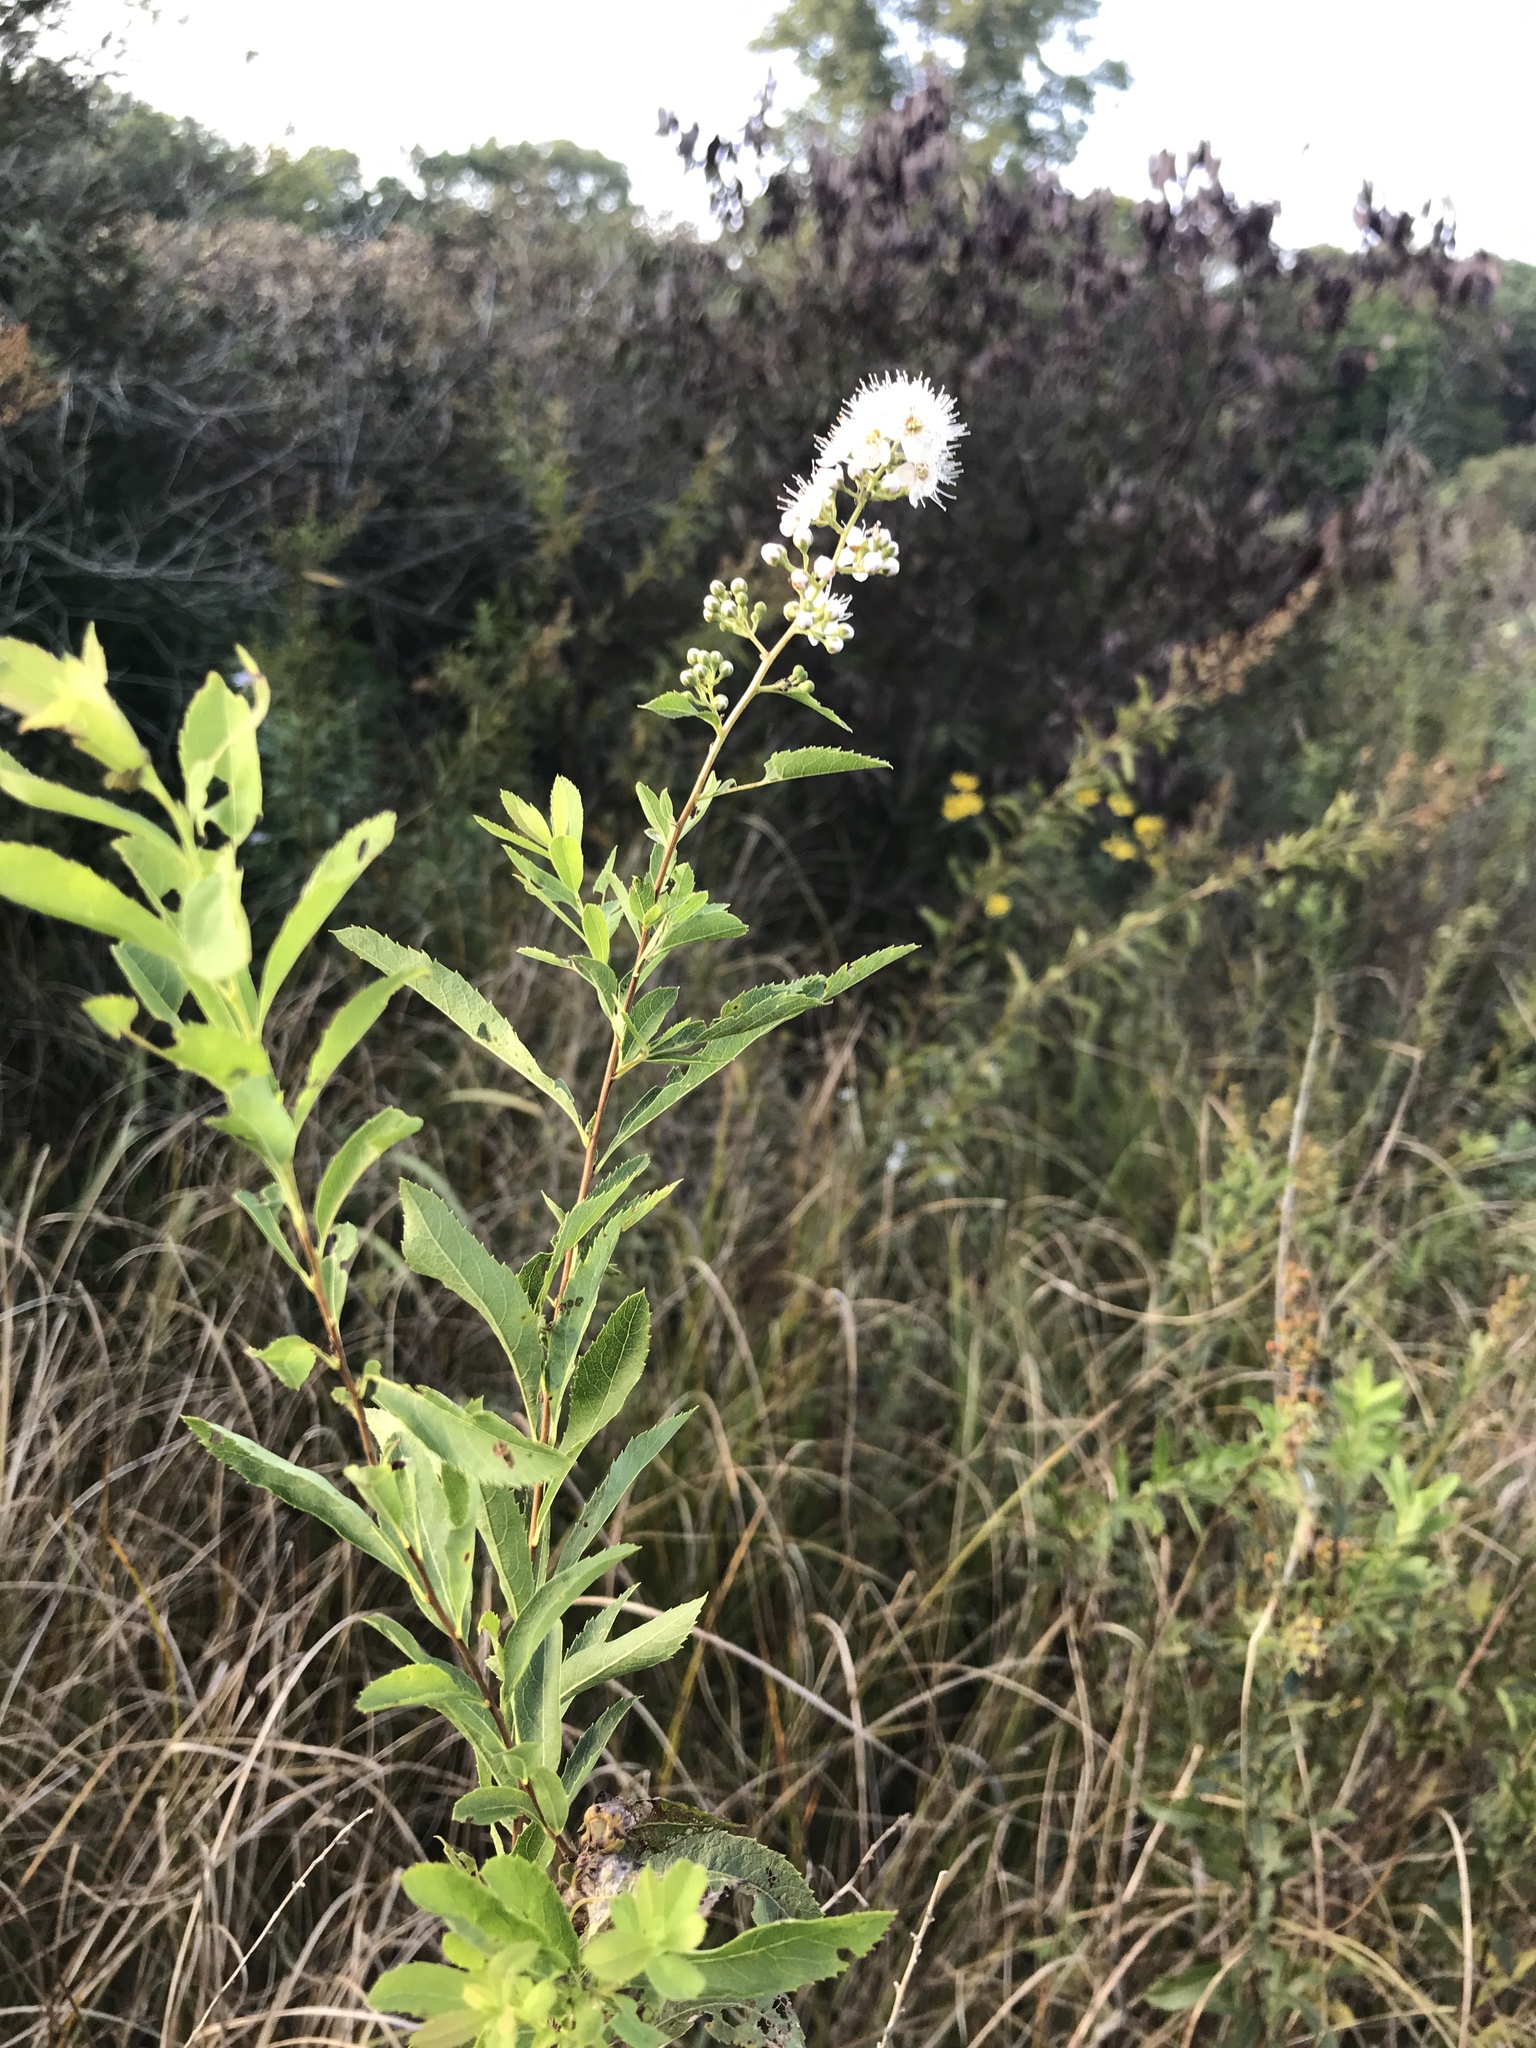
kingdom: Plantae
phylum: Tracheophyta
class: Magnoliopsida
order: Rosales
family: Rosaceae
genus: Spiraea
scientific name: Spiraea alba
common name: Pale bridewort
